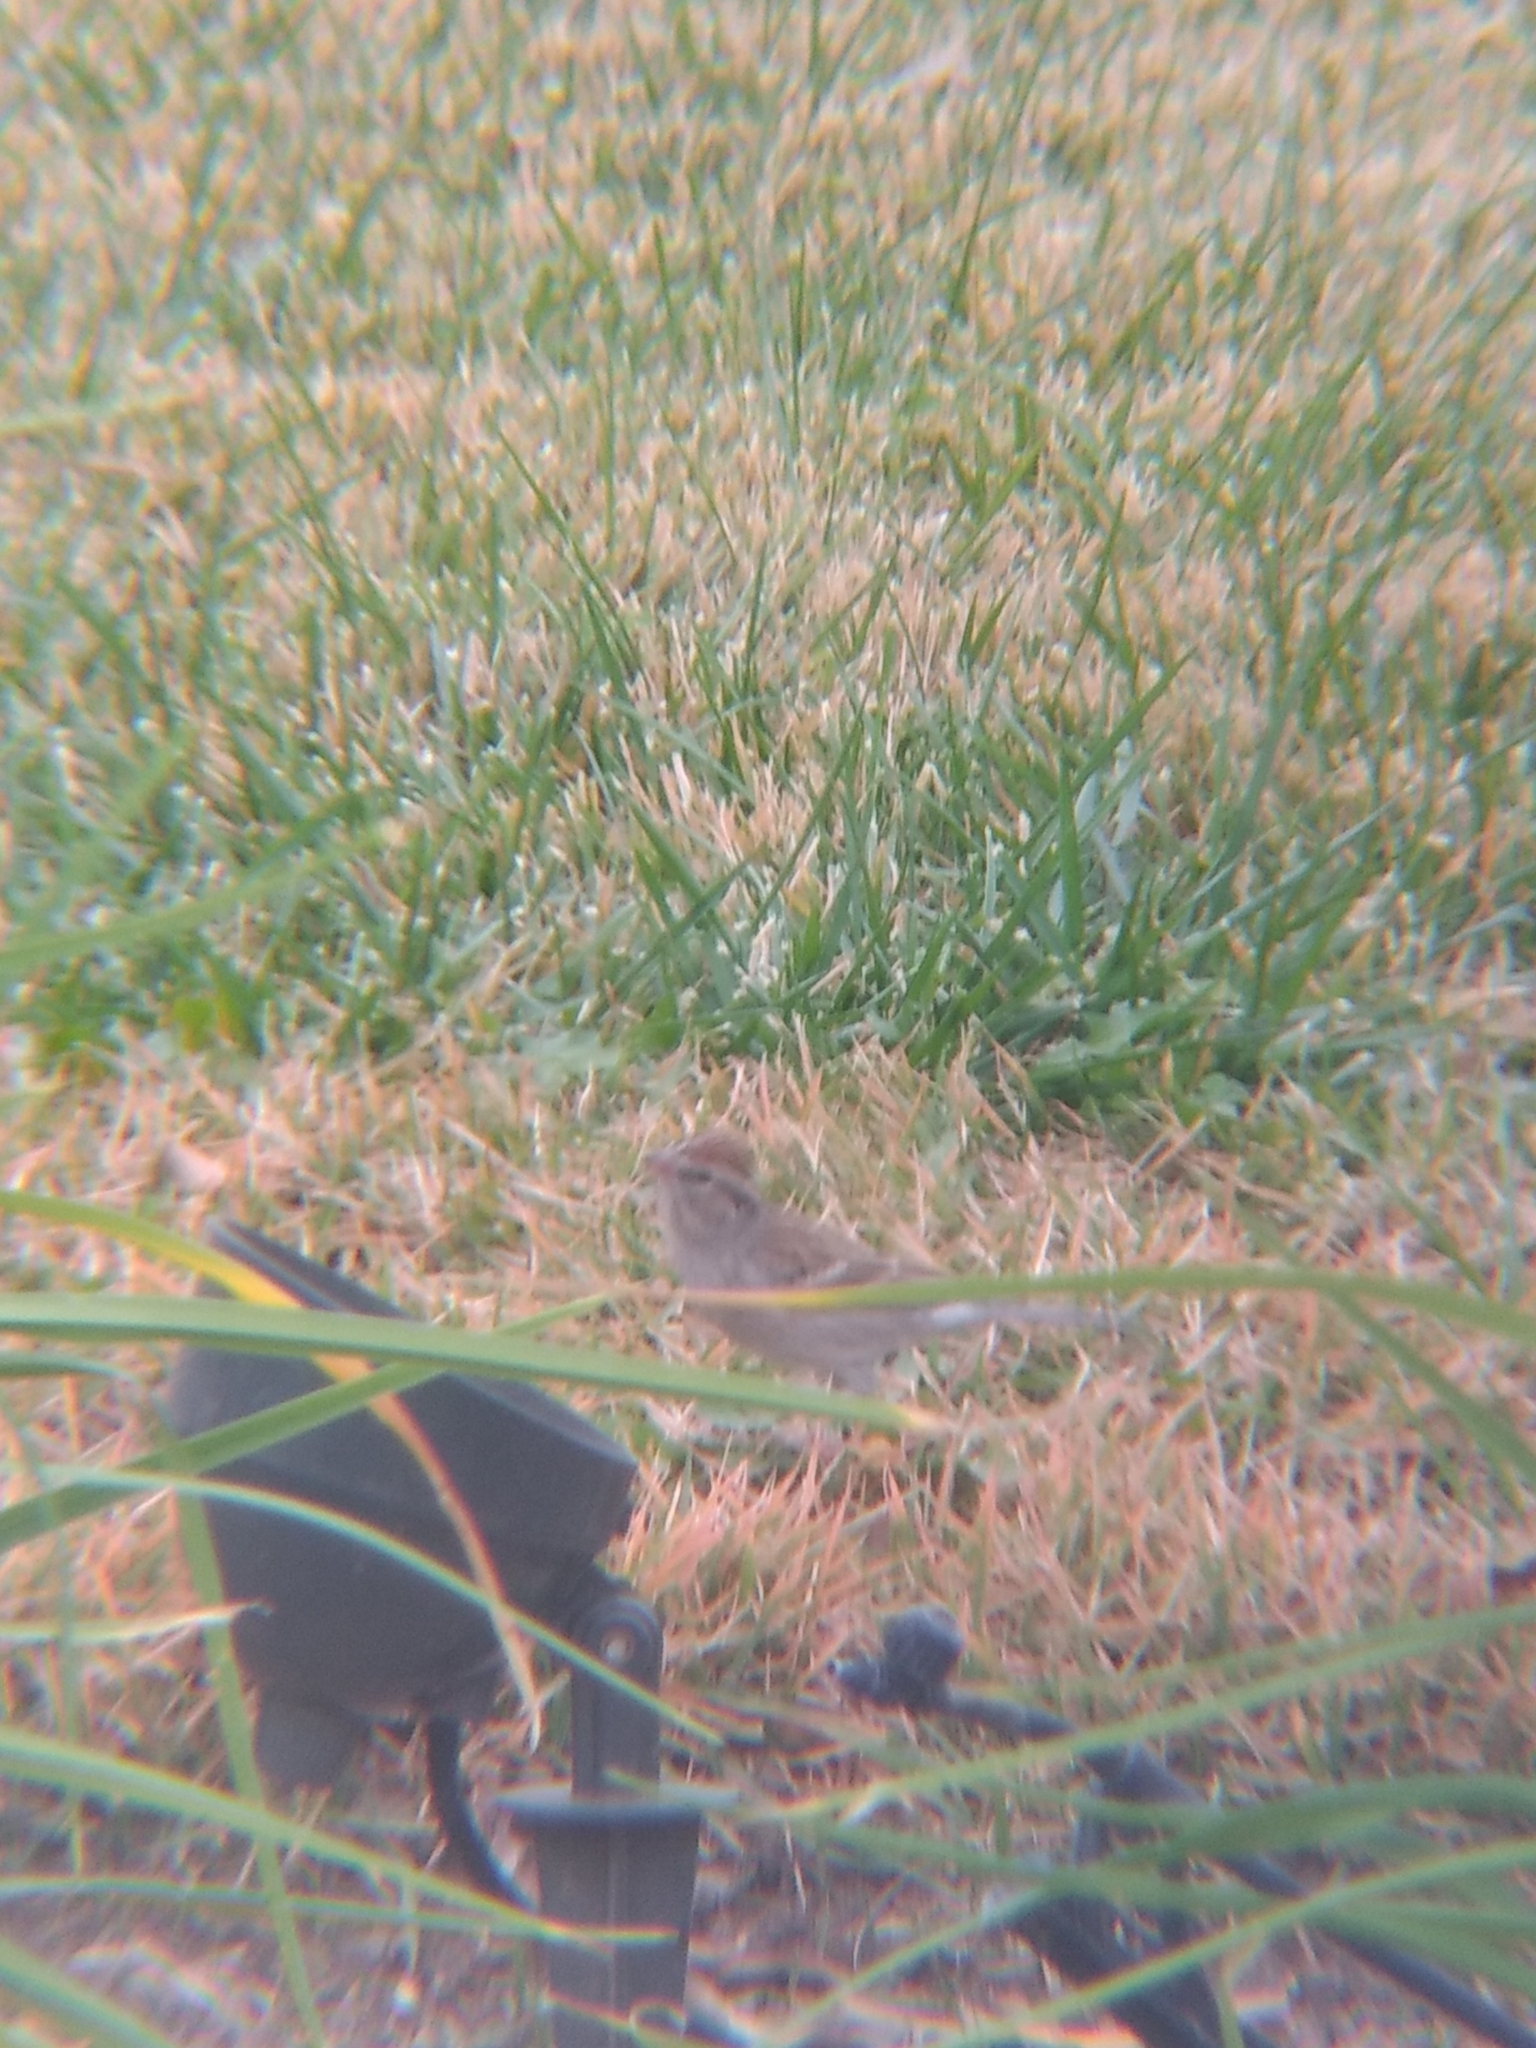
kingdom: Animalia
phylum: Chordata
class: Aves
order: Passeriformes
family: Passerellidae
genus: Spizella
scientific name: Spizella passerina
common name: Chipping sparrow
